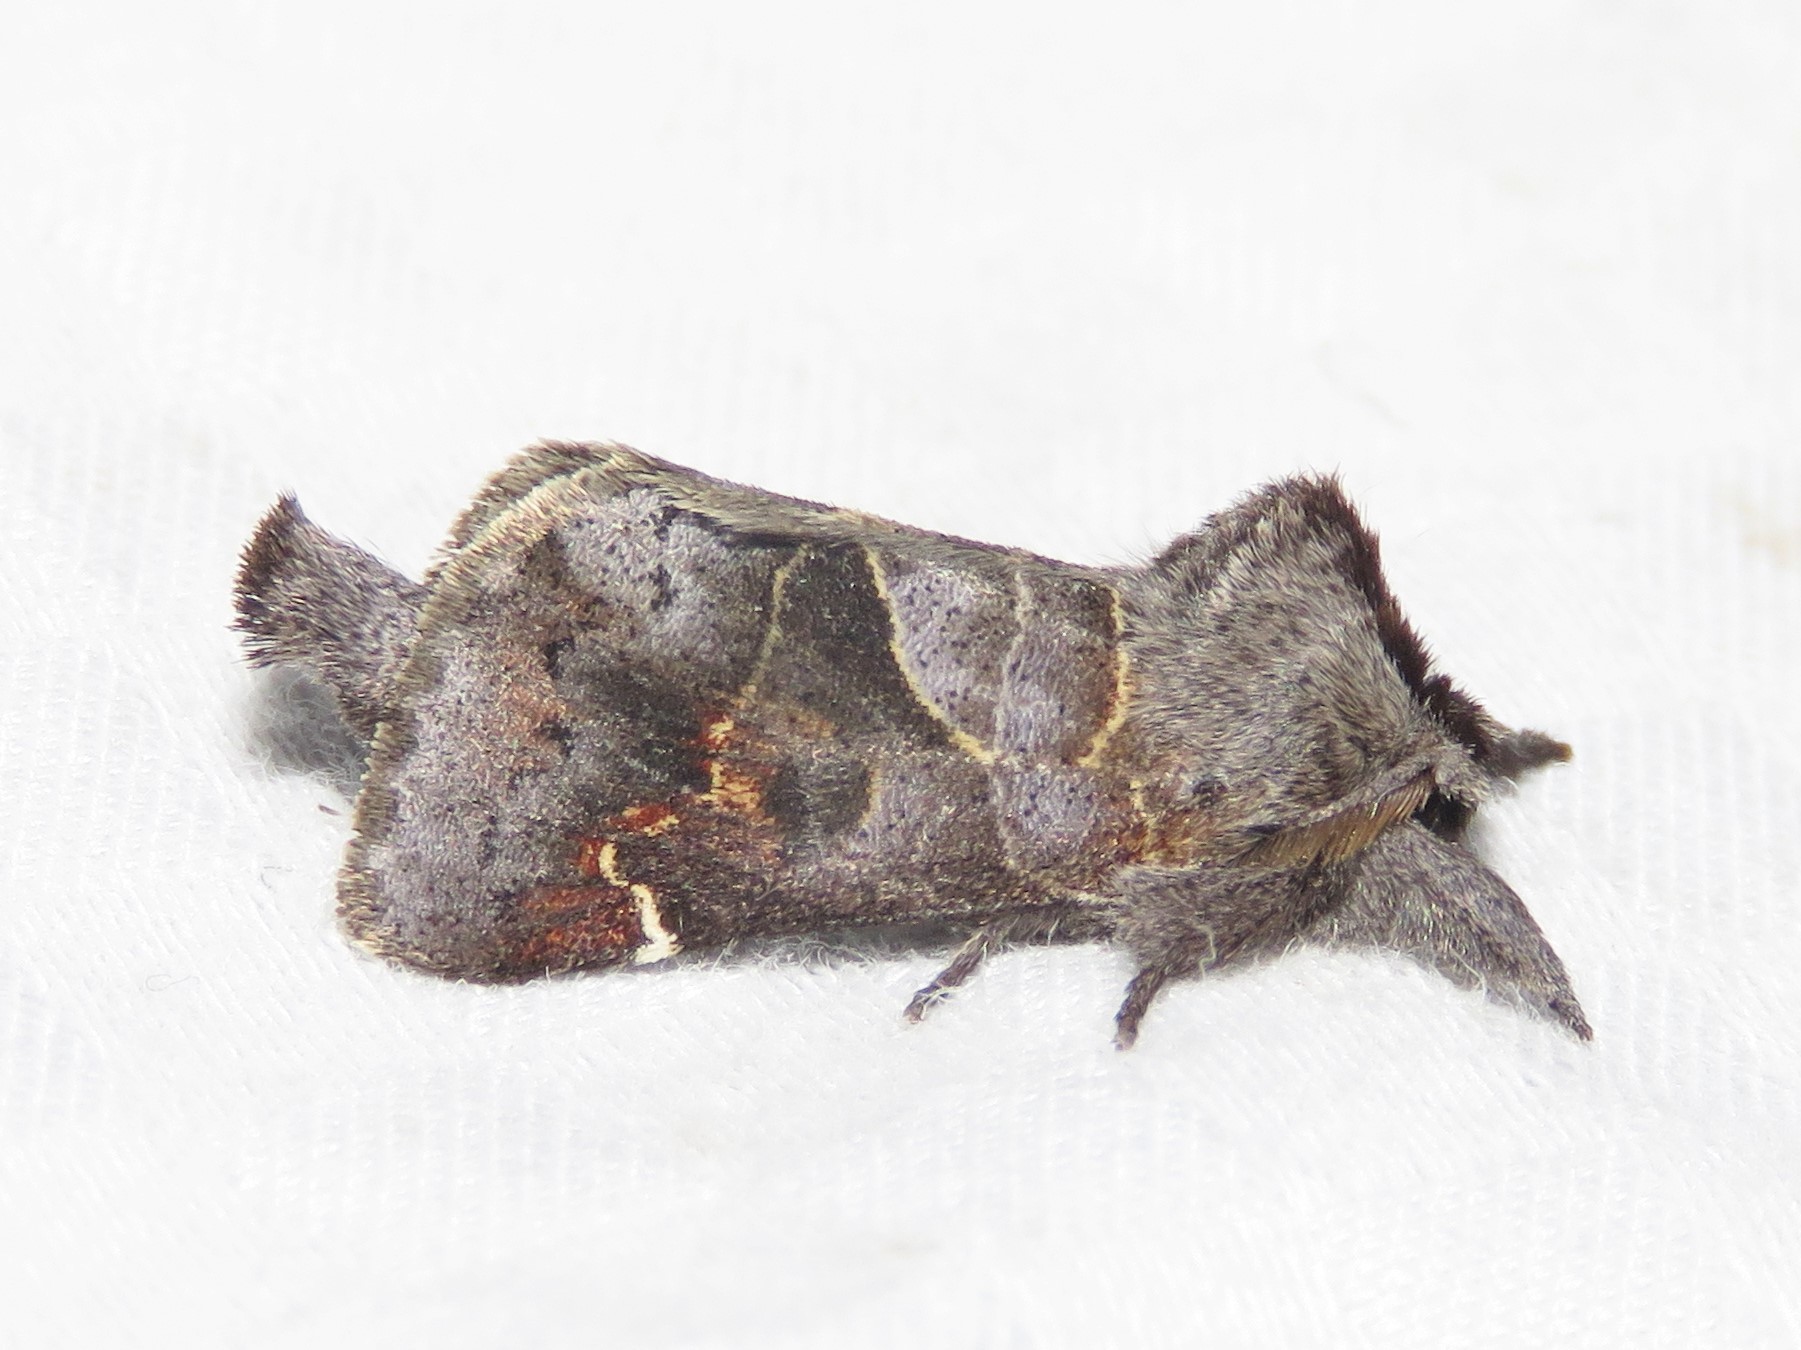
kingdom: Animalia
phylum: Arthropoda
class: Insecta
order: Lepidoptera
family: Notodontidae
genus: Clostera
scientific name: Clostera apicalis
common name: Apical prominent
